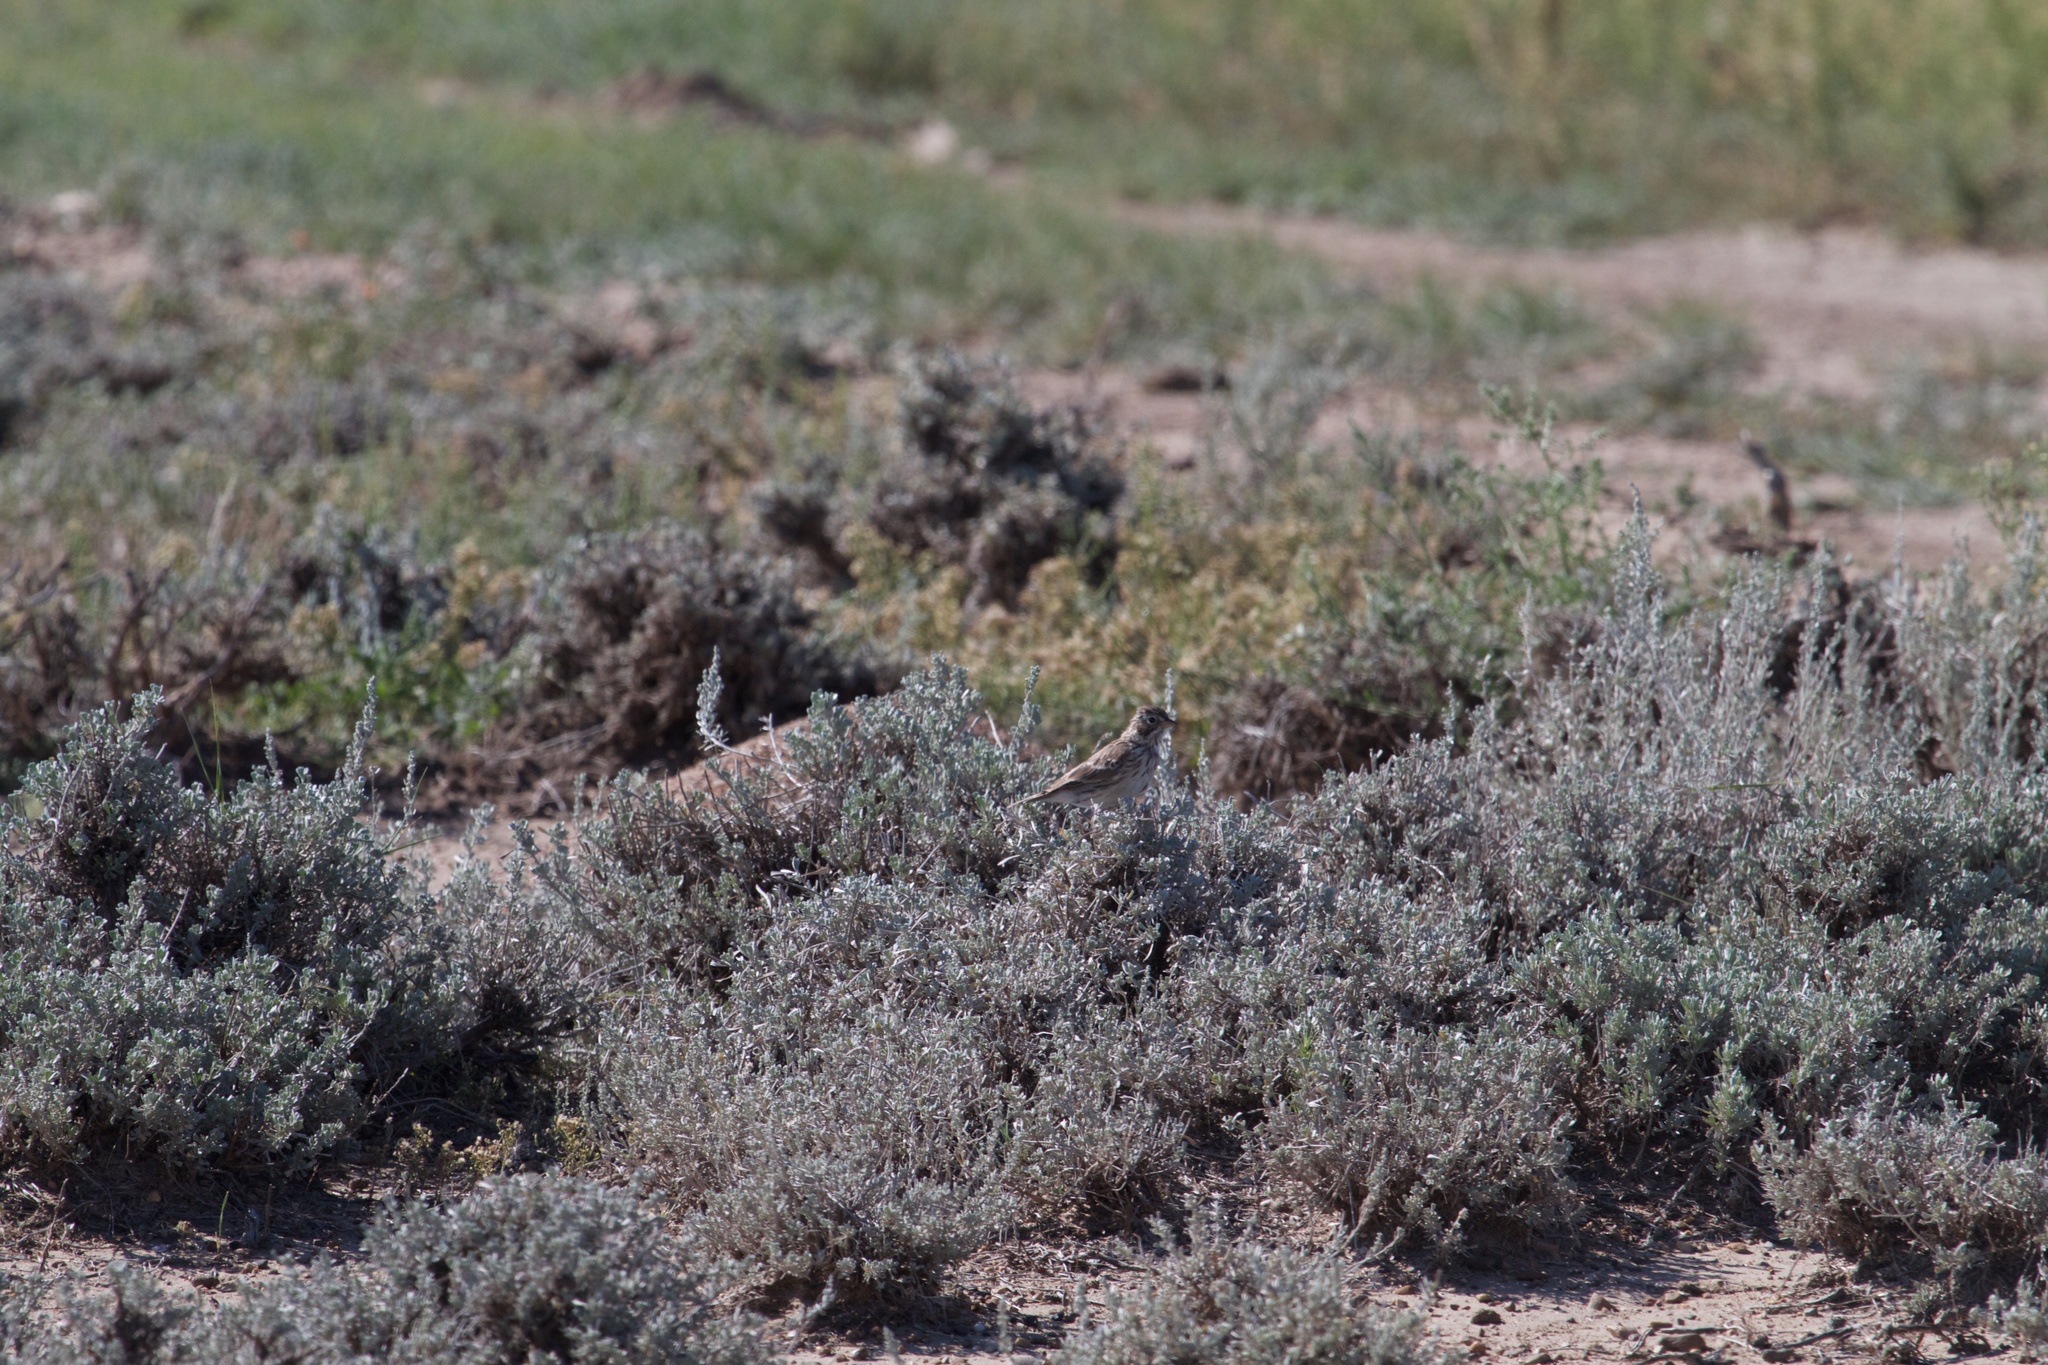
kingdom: Animalia
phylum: Chordata
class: Aves
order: Passeriformes
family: Passerellidae
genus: Pooecetes
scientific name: Pooecetes gramineus
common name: Vesper sparrow
